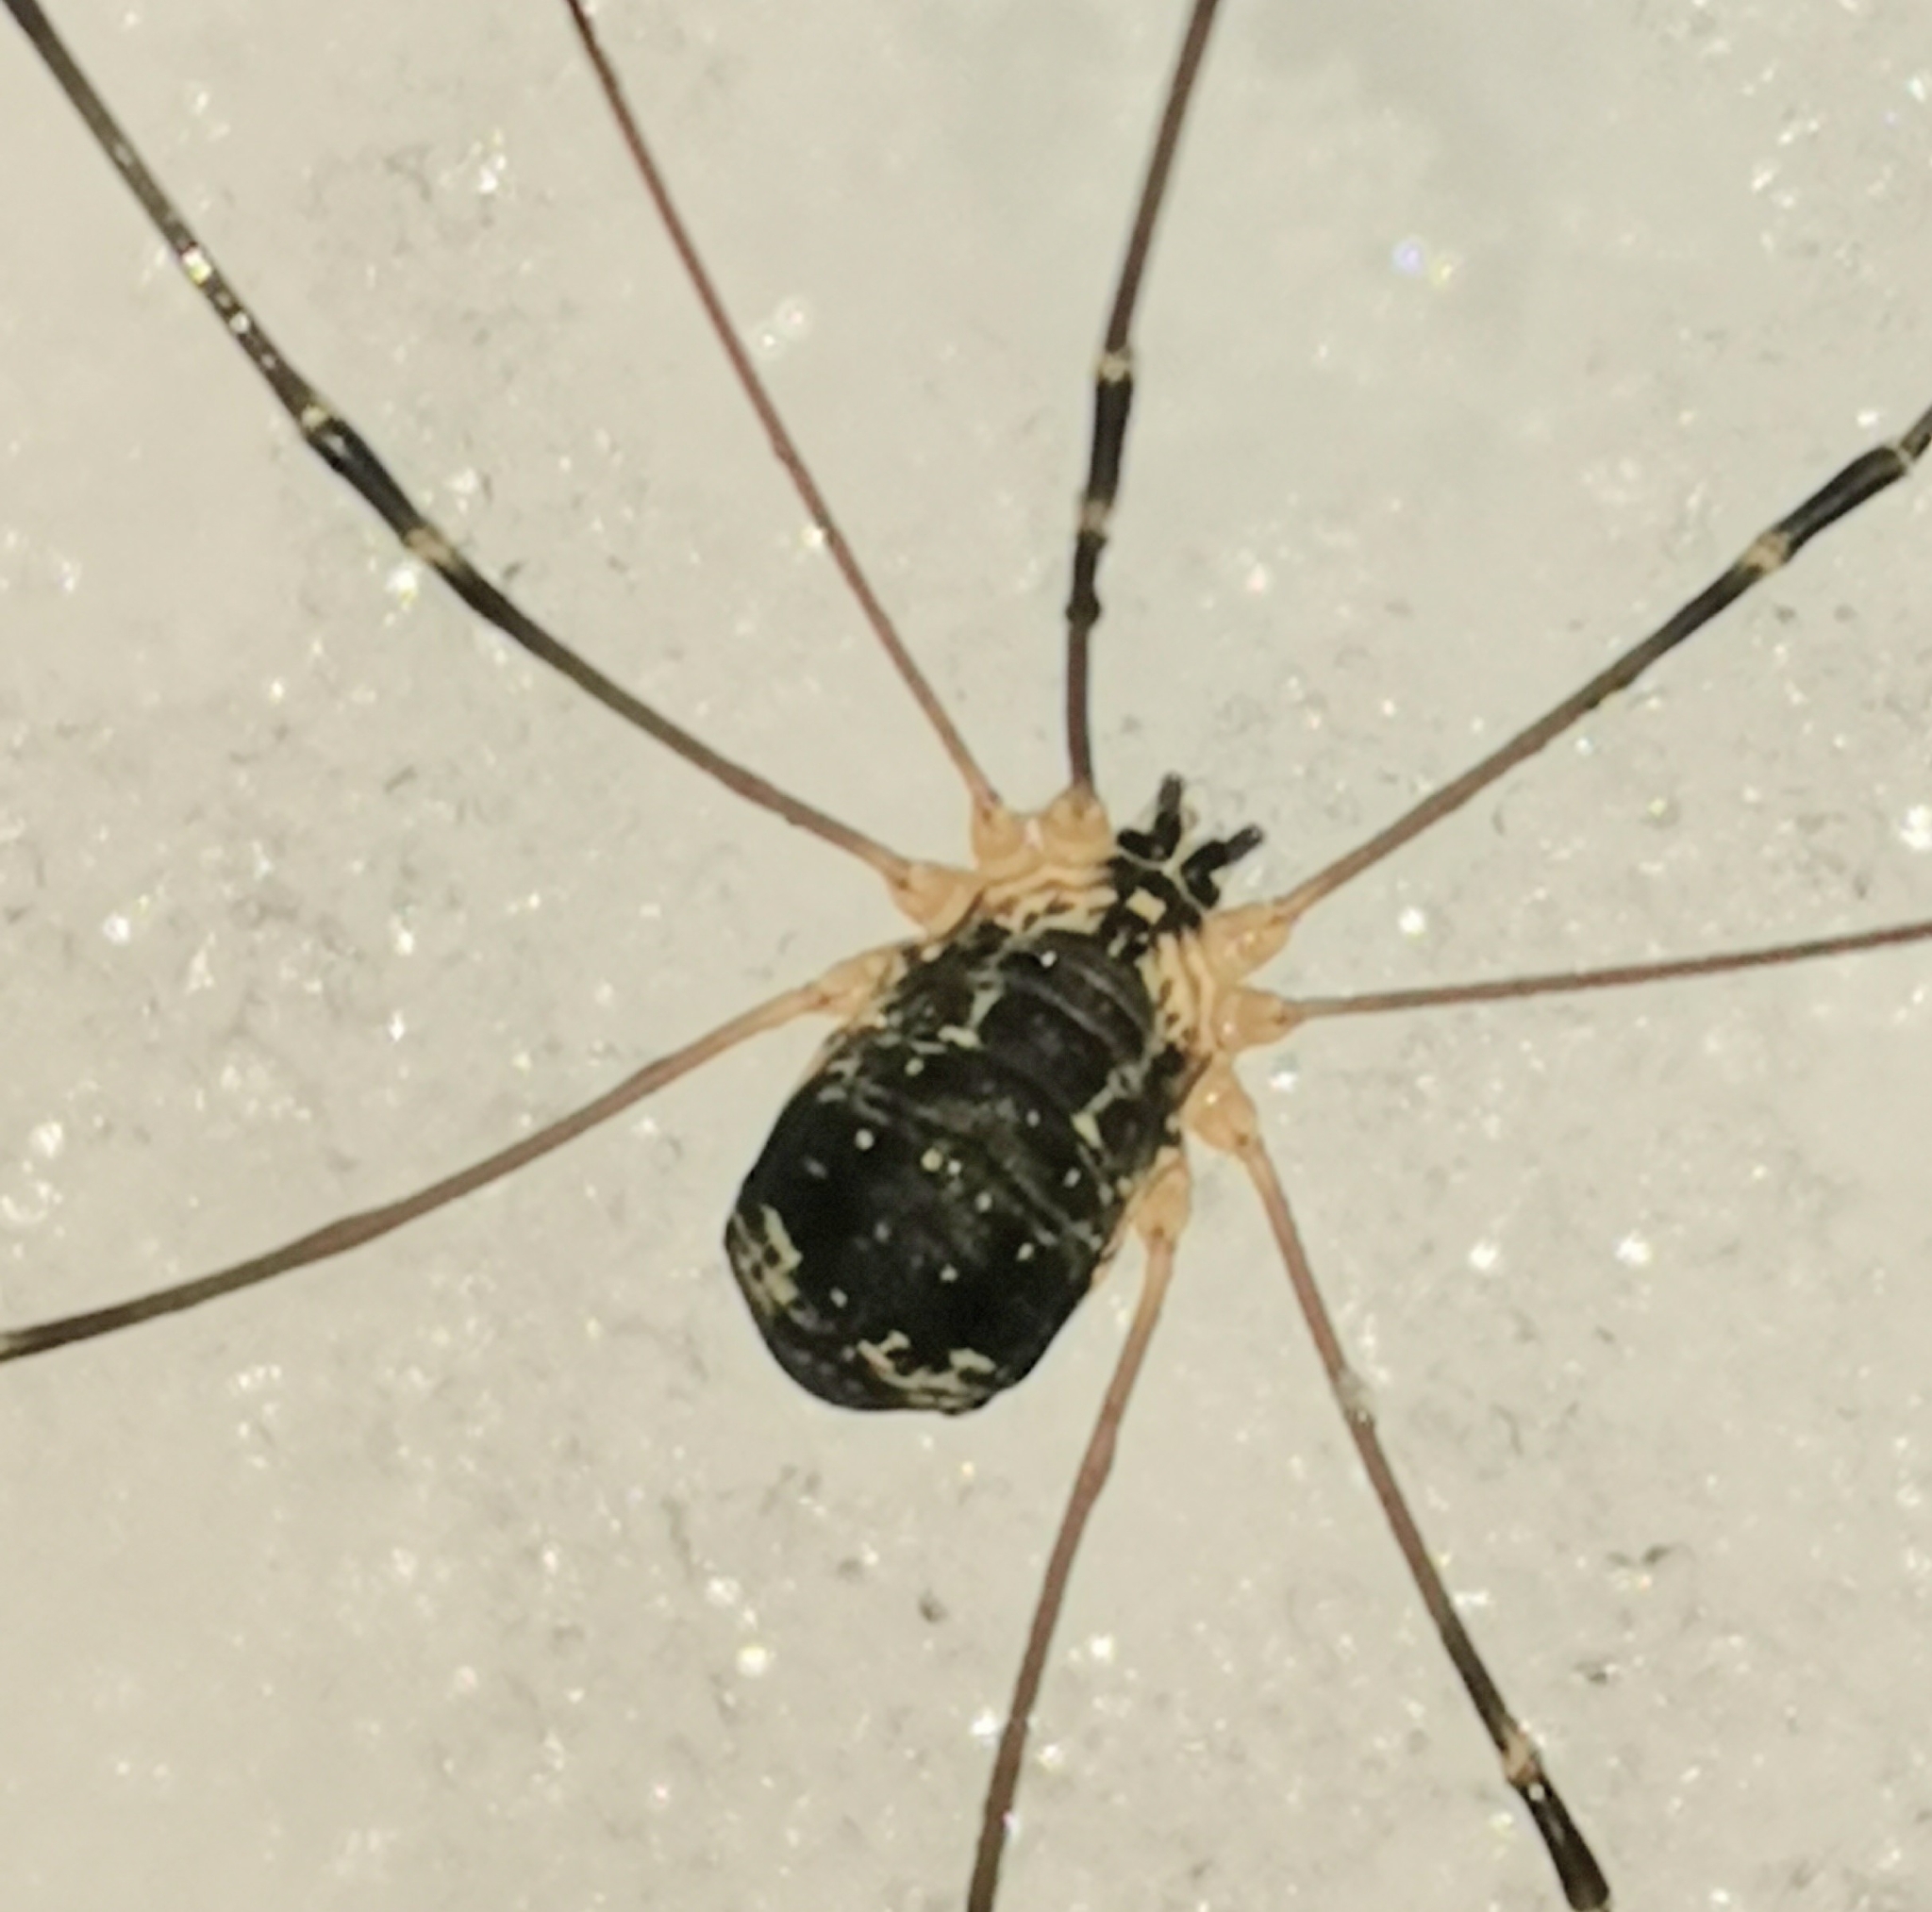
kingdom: Animalia
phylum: Arthropoda
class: Arachnida
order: Opiliones
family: Sclerosomatidae
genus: Leiobunum
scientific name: Leiobunum gracile
